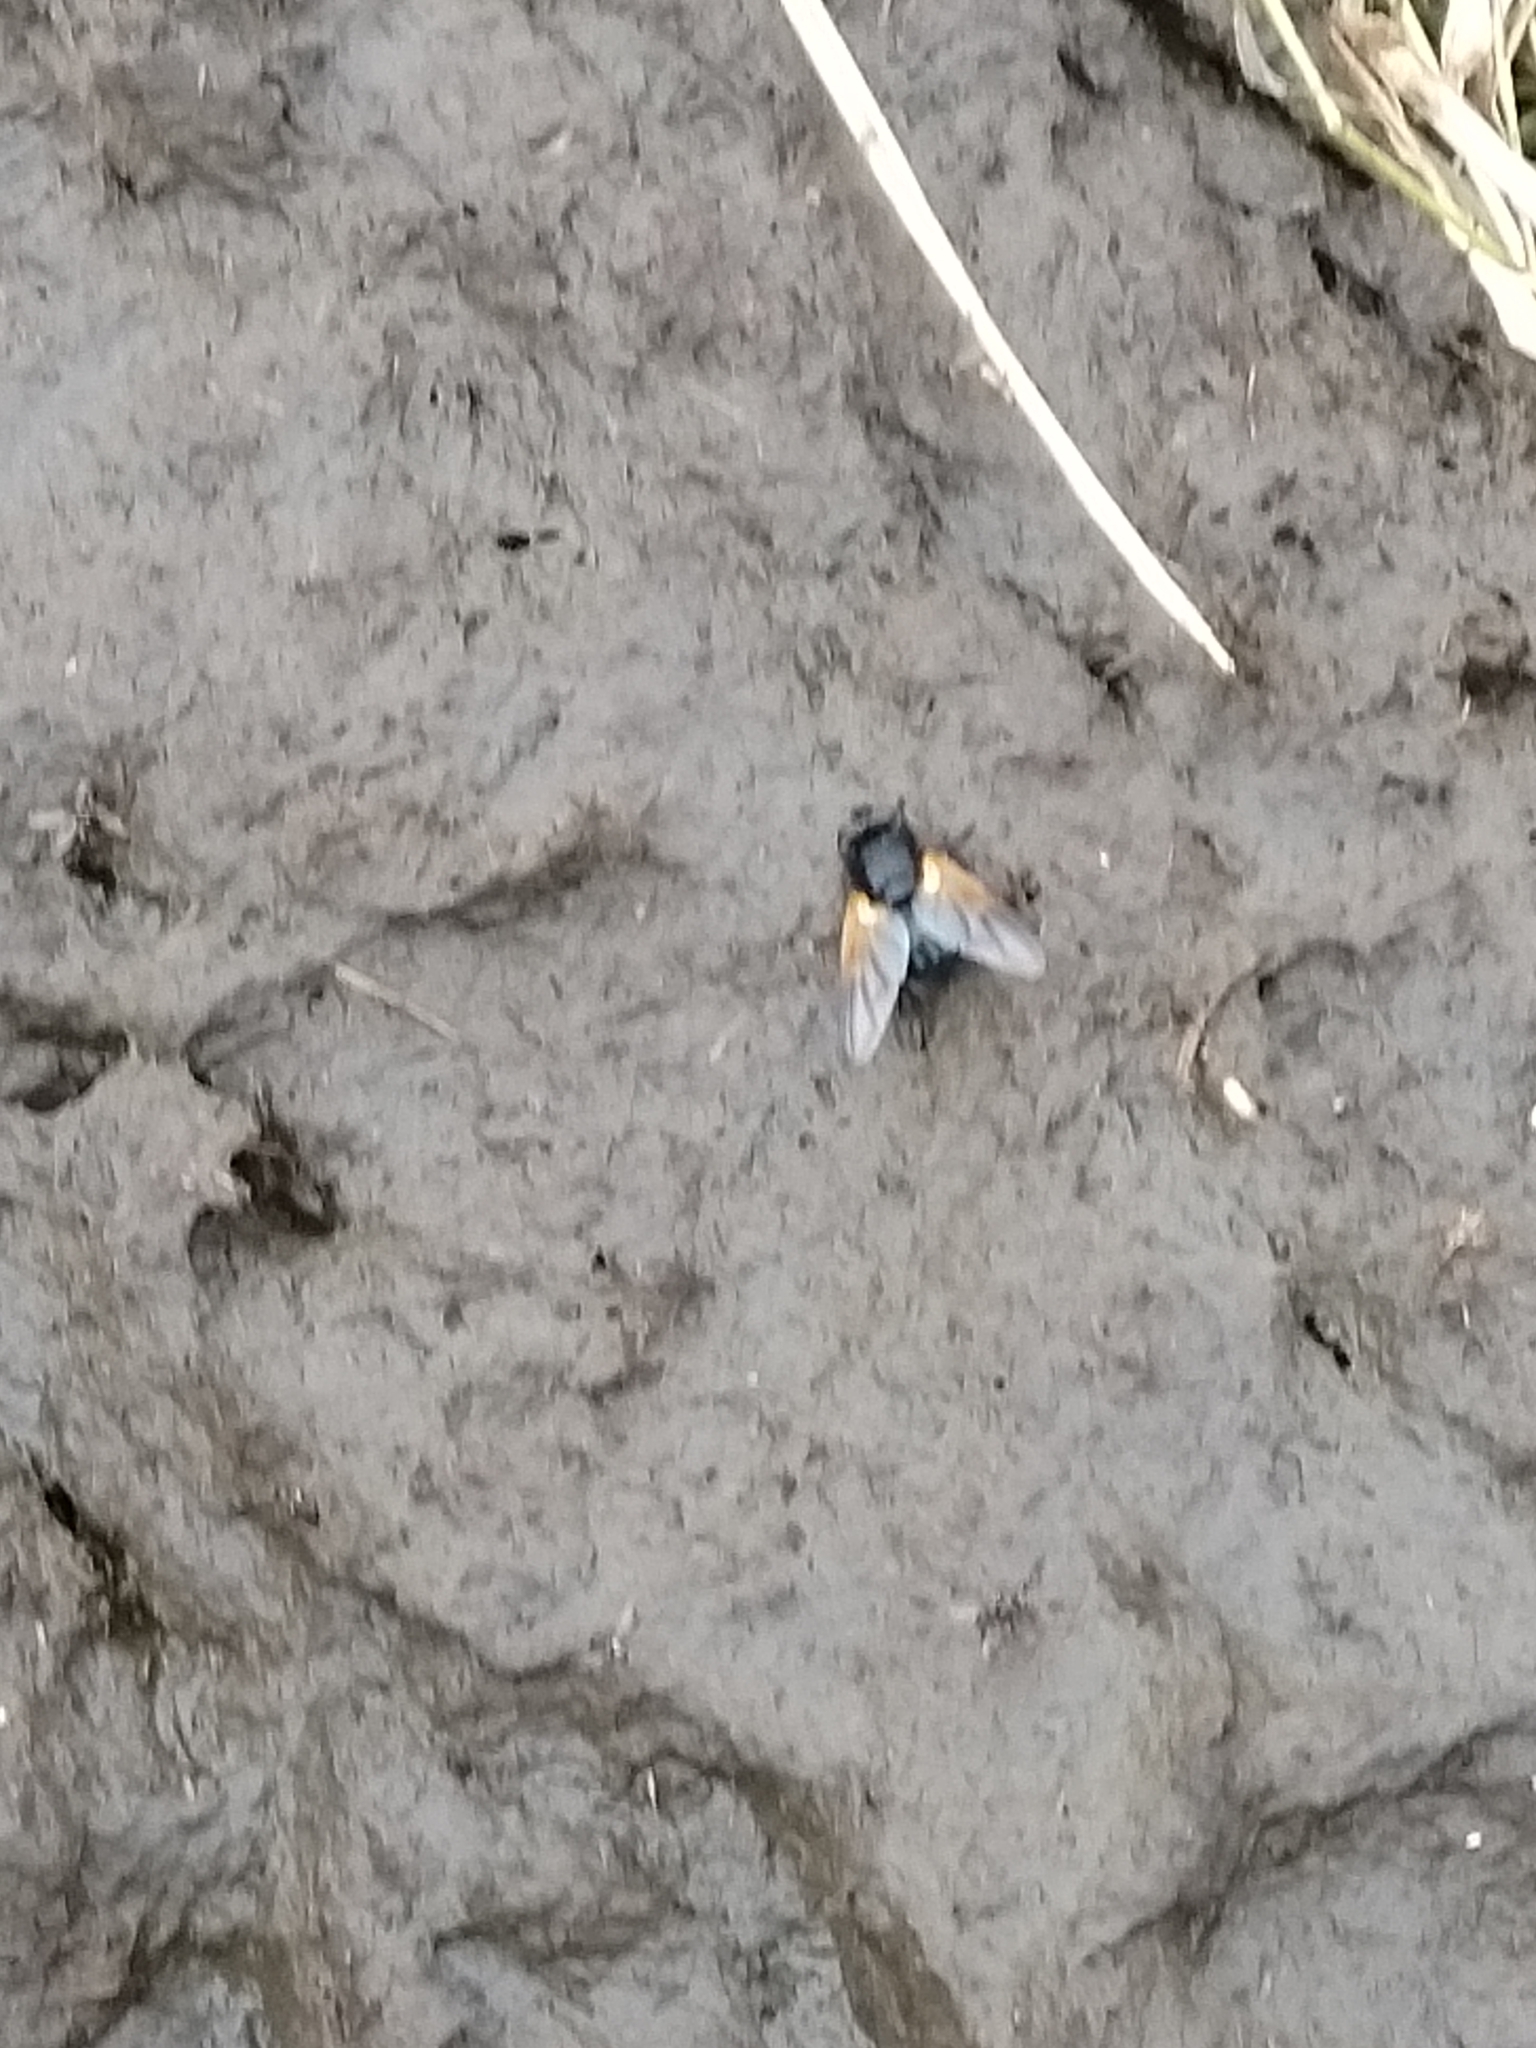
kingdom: Animalia
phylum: Arthropoda
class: Insecta
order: Diptera
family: Muscidae
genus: Mesembrina
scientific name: Mesembrina meridiana
